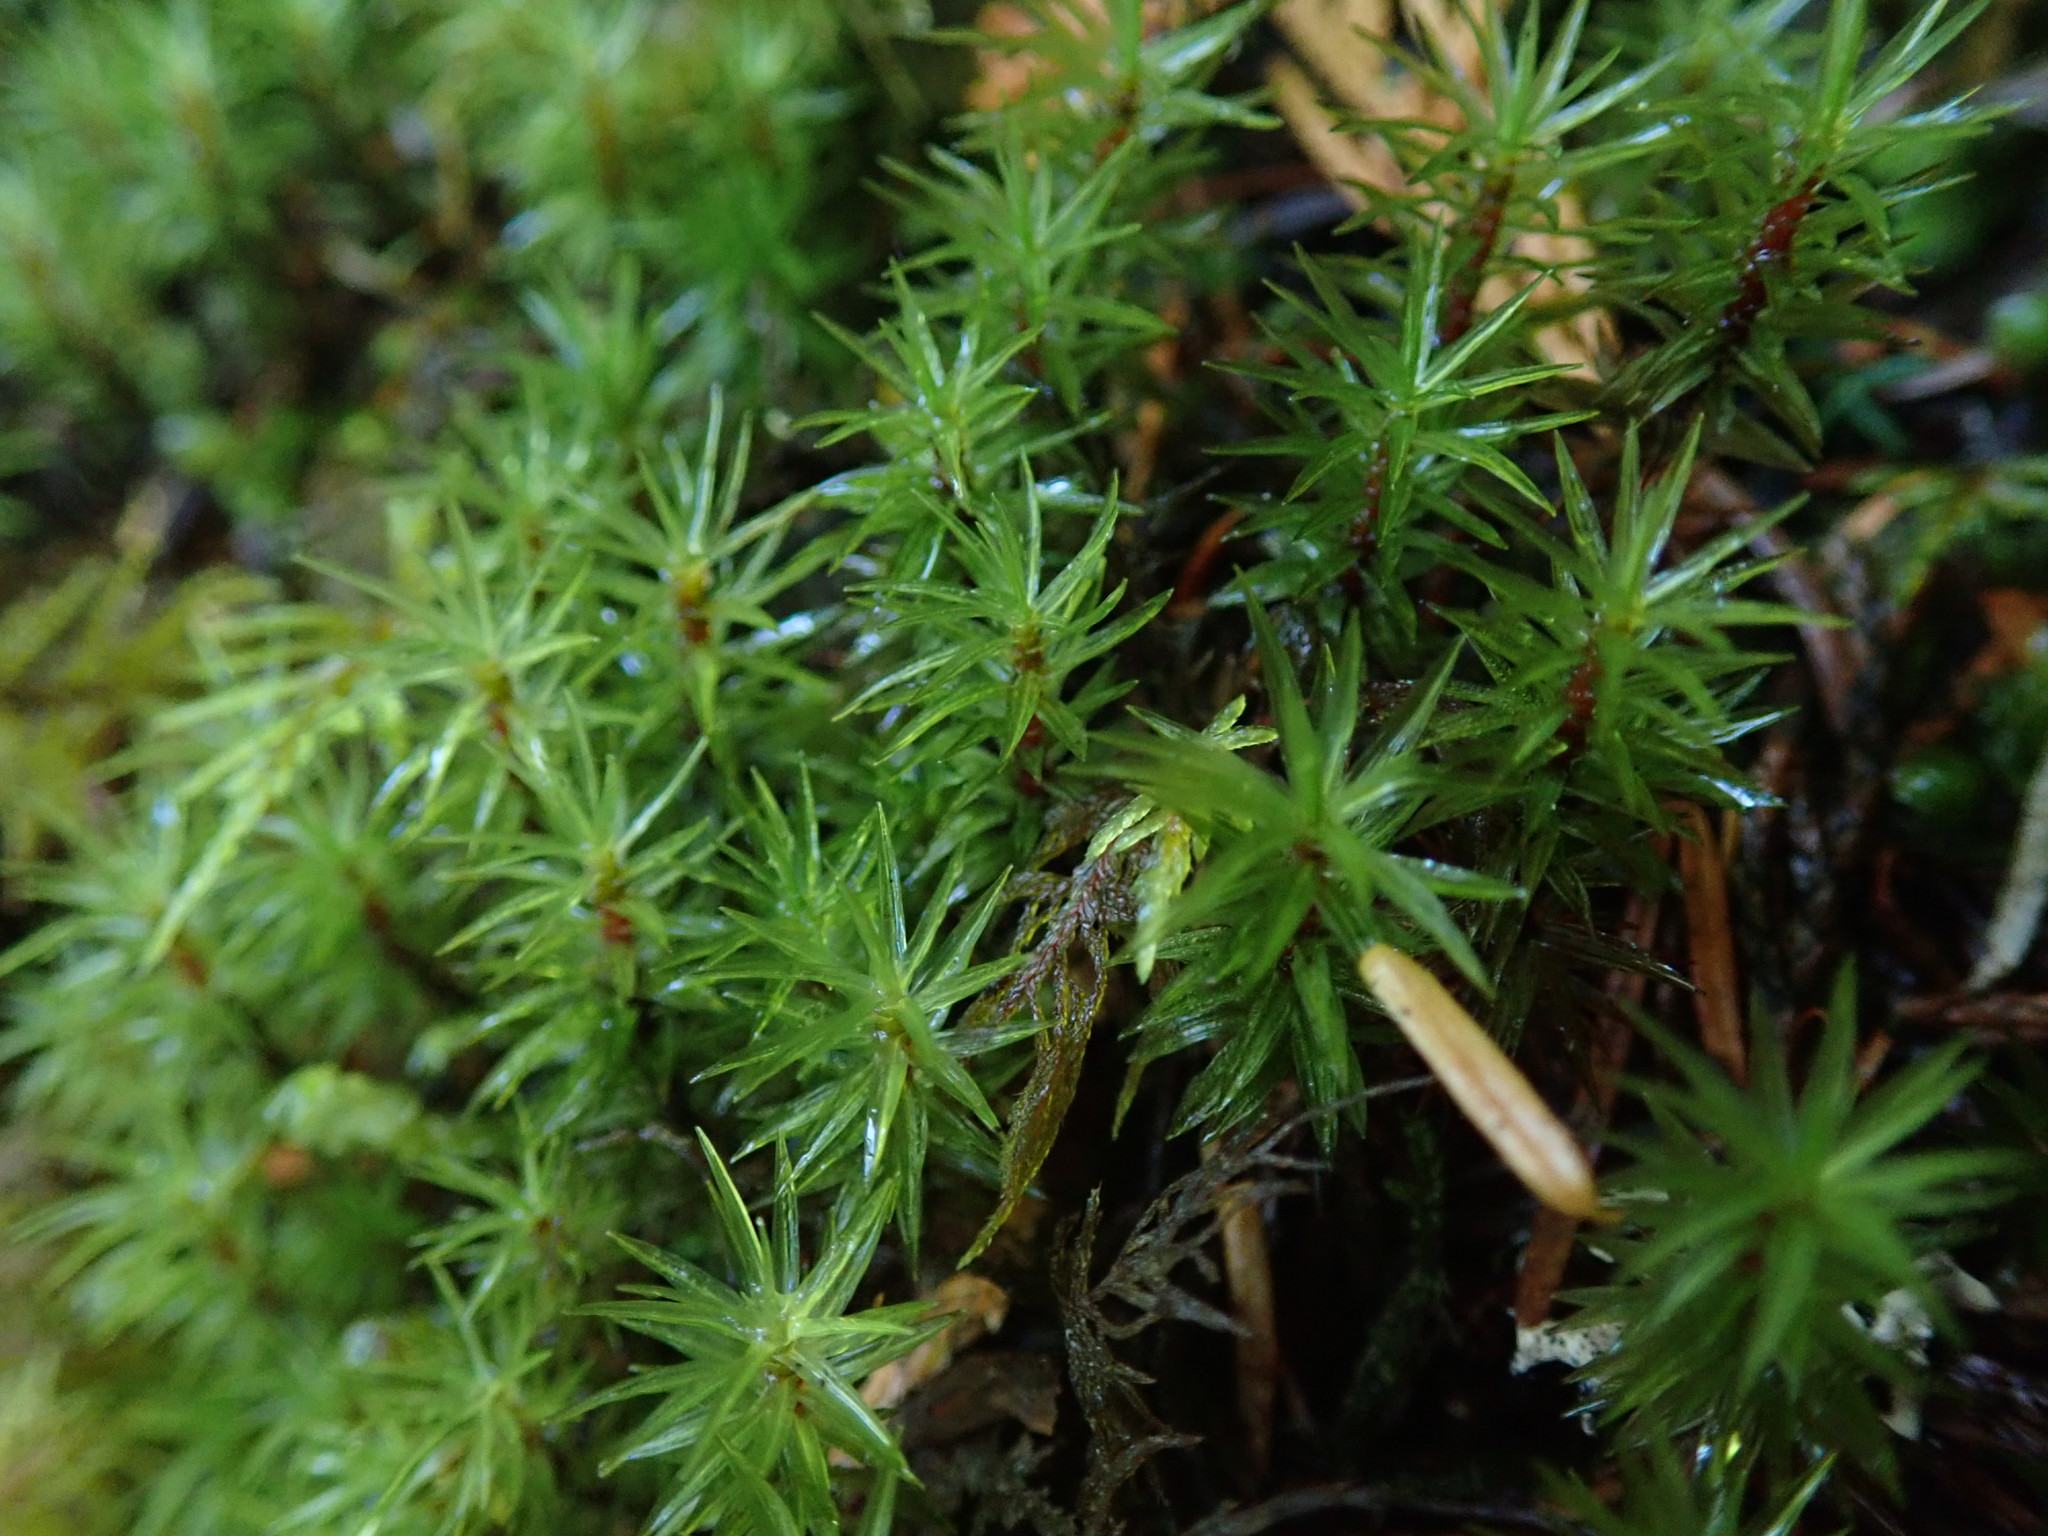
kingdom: Plantae
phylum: Bryophyta
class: Bryopsida
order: Timmiales
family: Timmiaceae
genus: Timmia
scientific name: Timmia austriaca
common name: Austrian timmia
